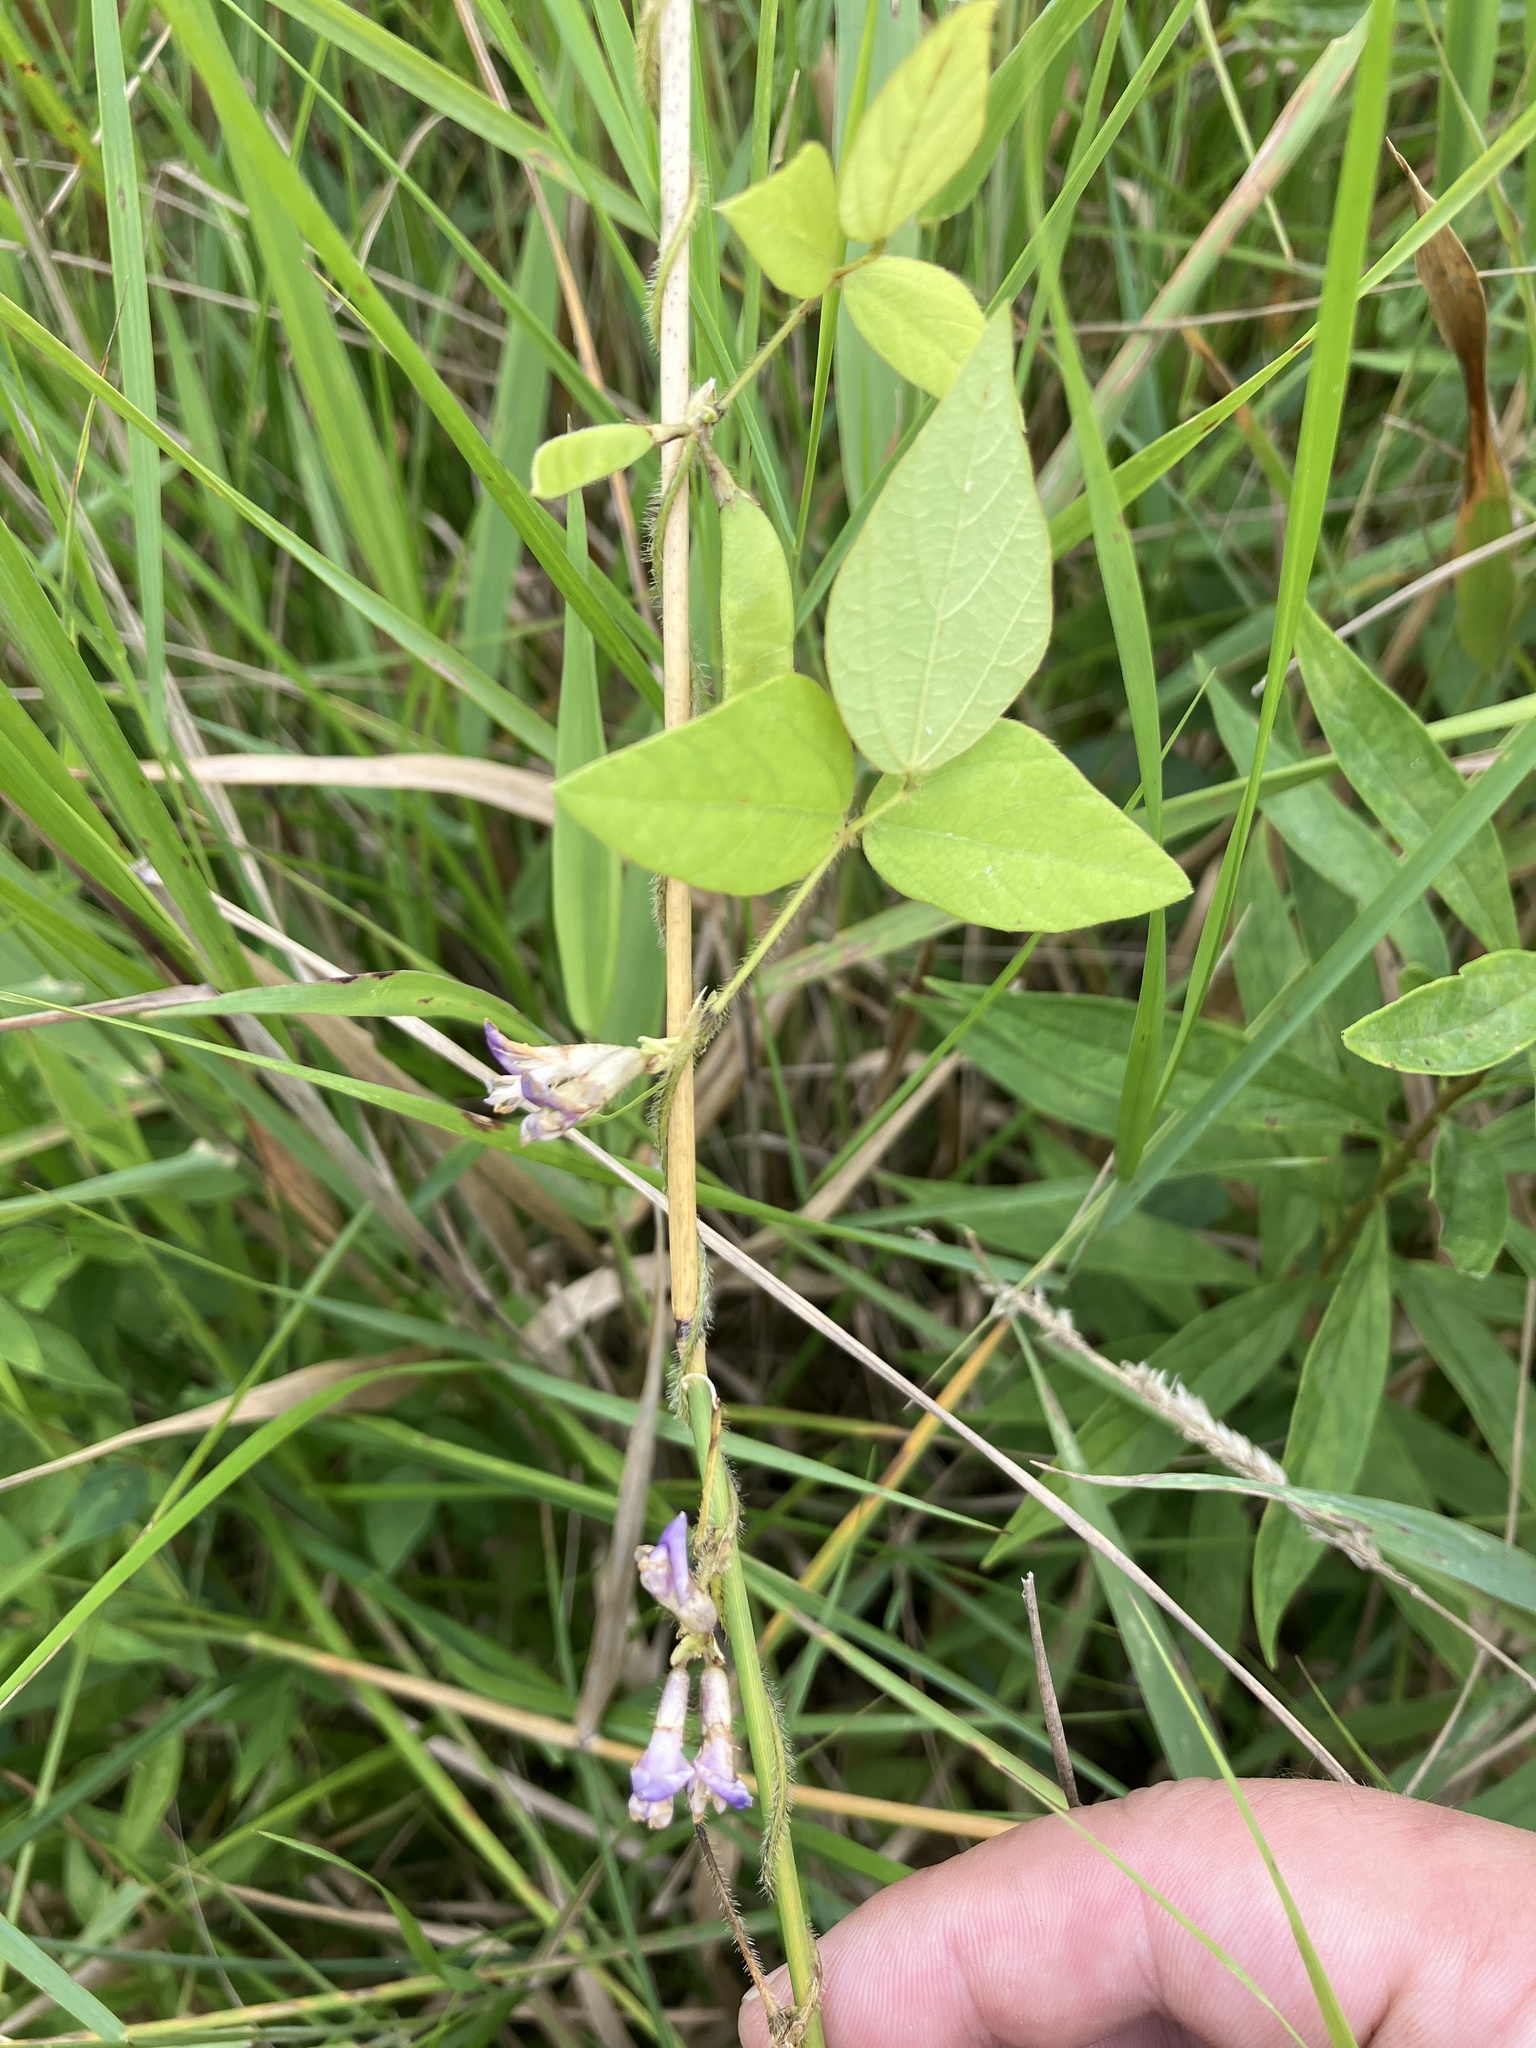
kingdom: Plantae
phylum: Tracheophyta
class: Magnoliopsida
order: Fabales
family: Fabaceae
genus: Amphicarpaea
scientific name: Amphicarpaea bracteata
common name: American hog peanut
